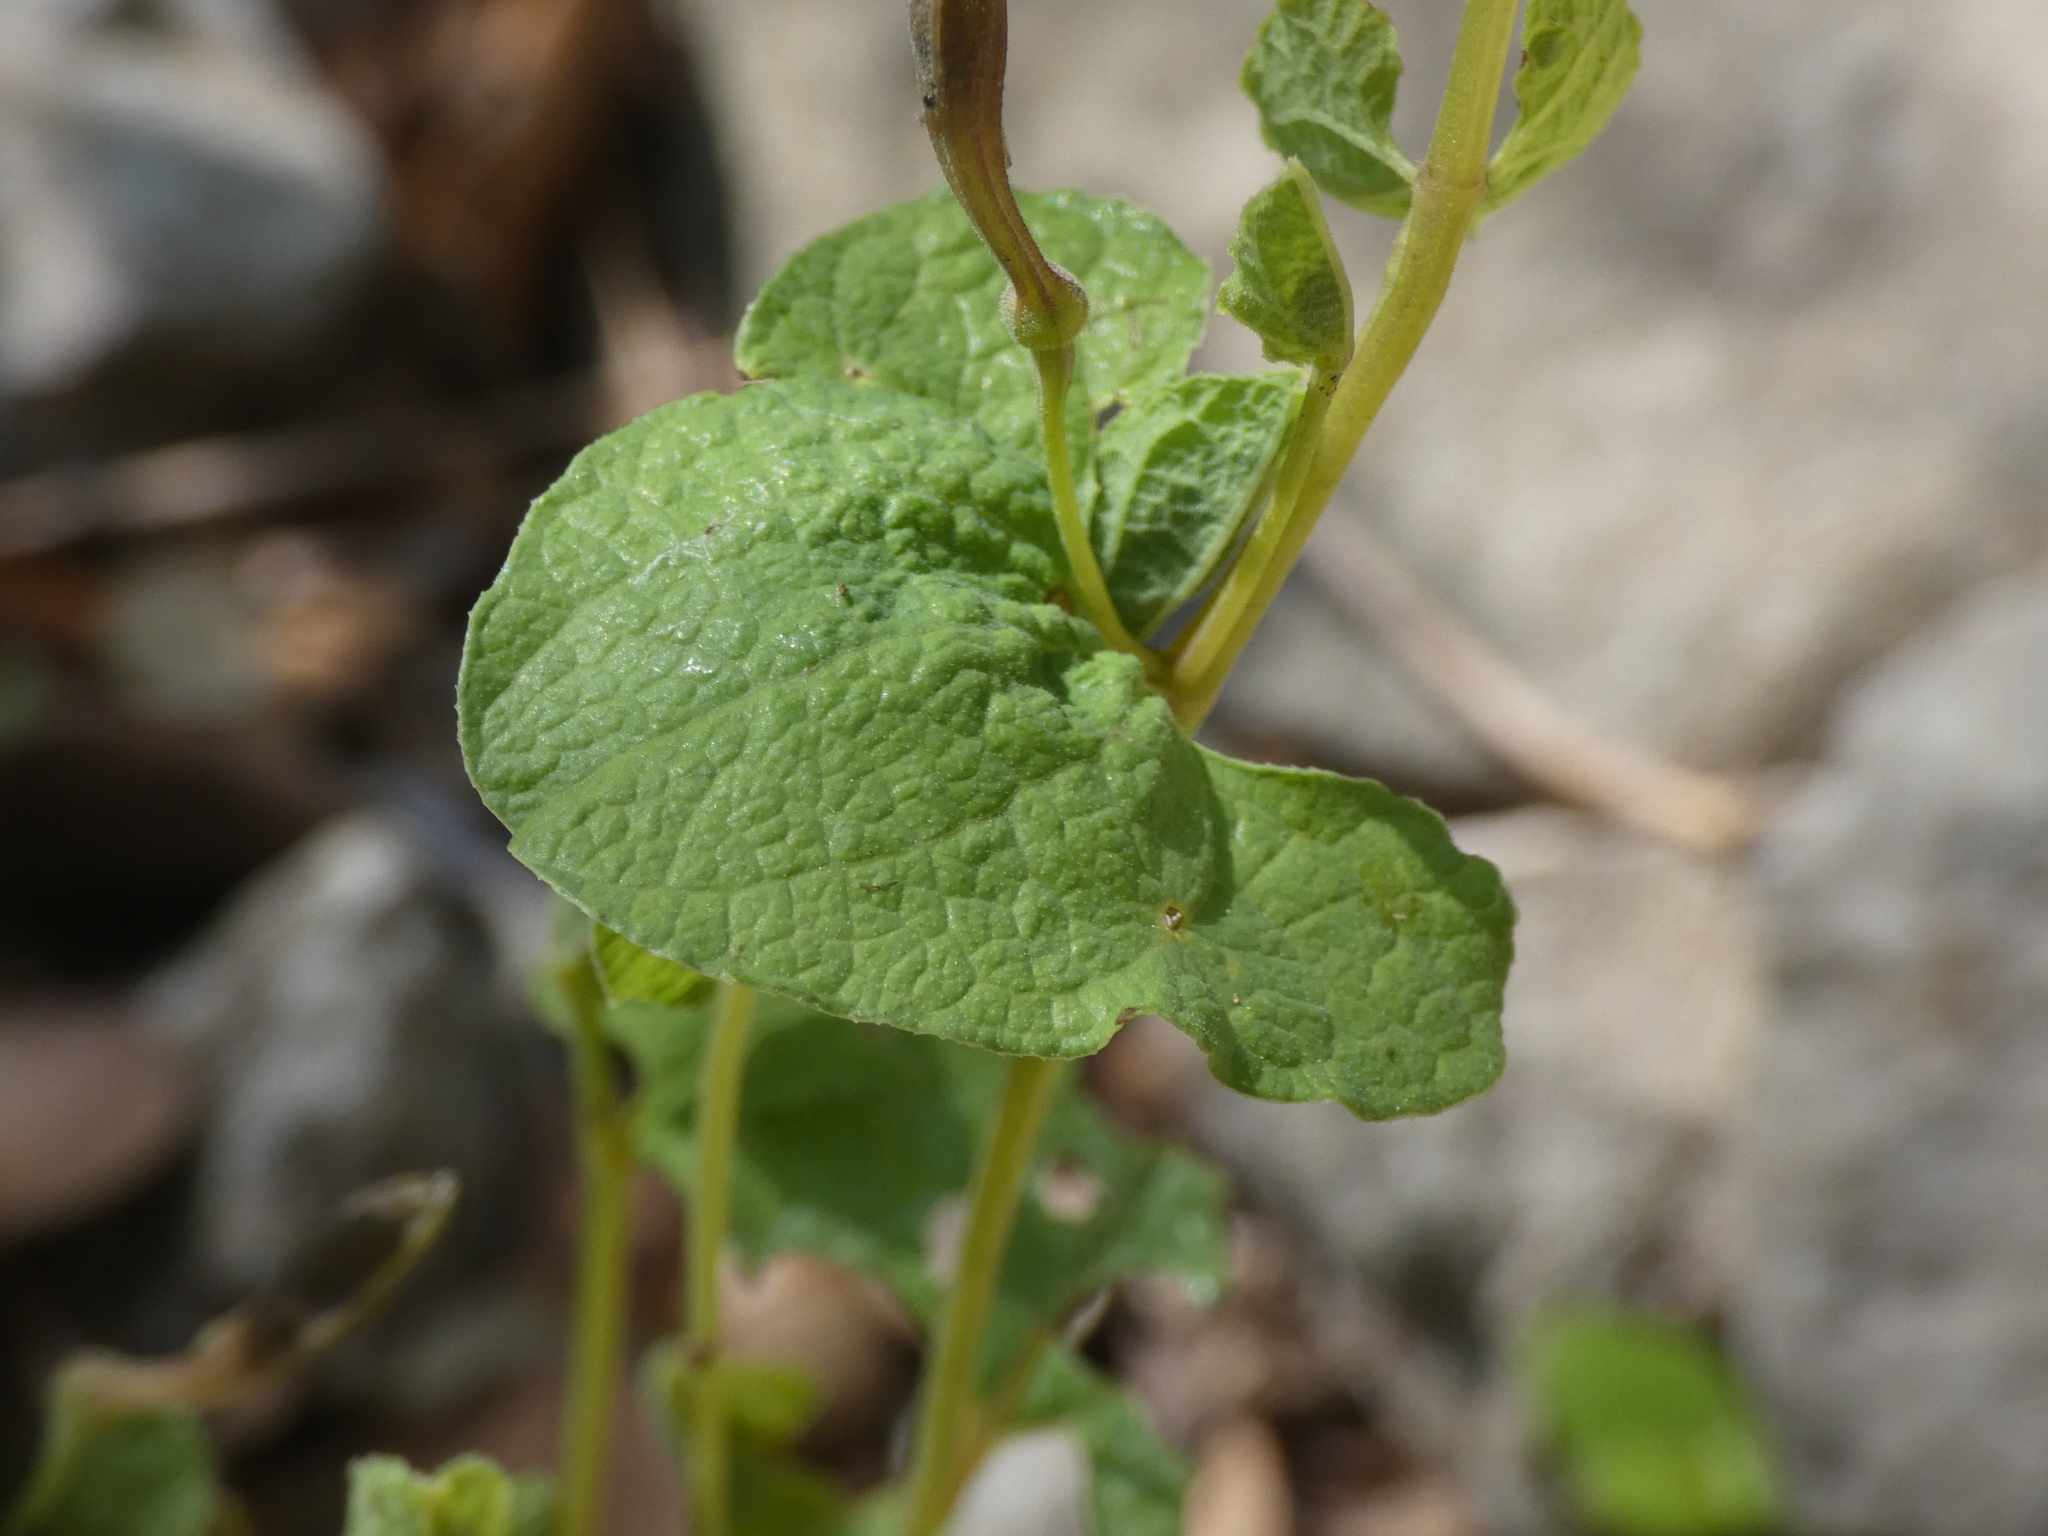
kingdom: Plantae
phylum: Tracheophyta
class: Magnoliopsida
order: Piperales
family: Aristolochiaceae
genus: Aristolochia
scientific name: Aristolochia pistolochia
